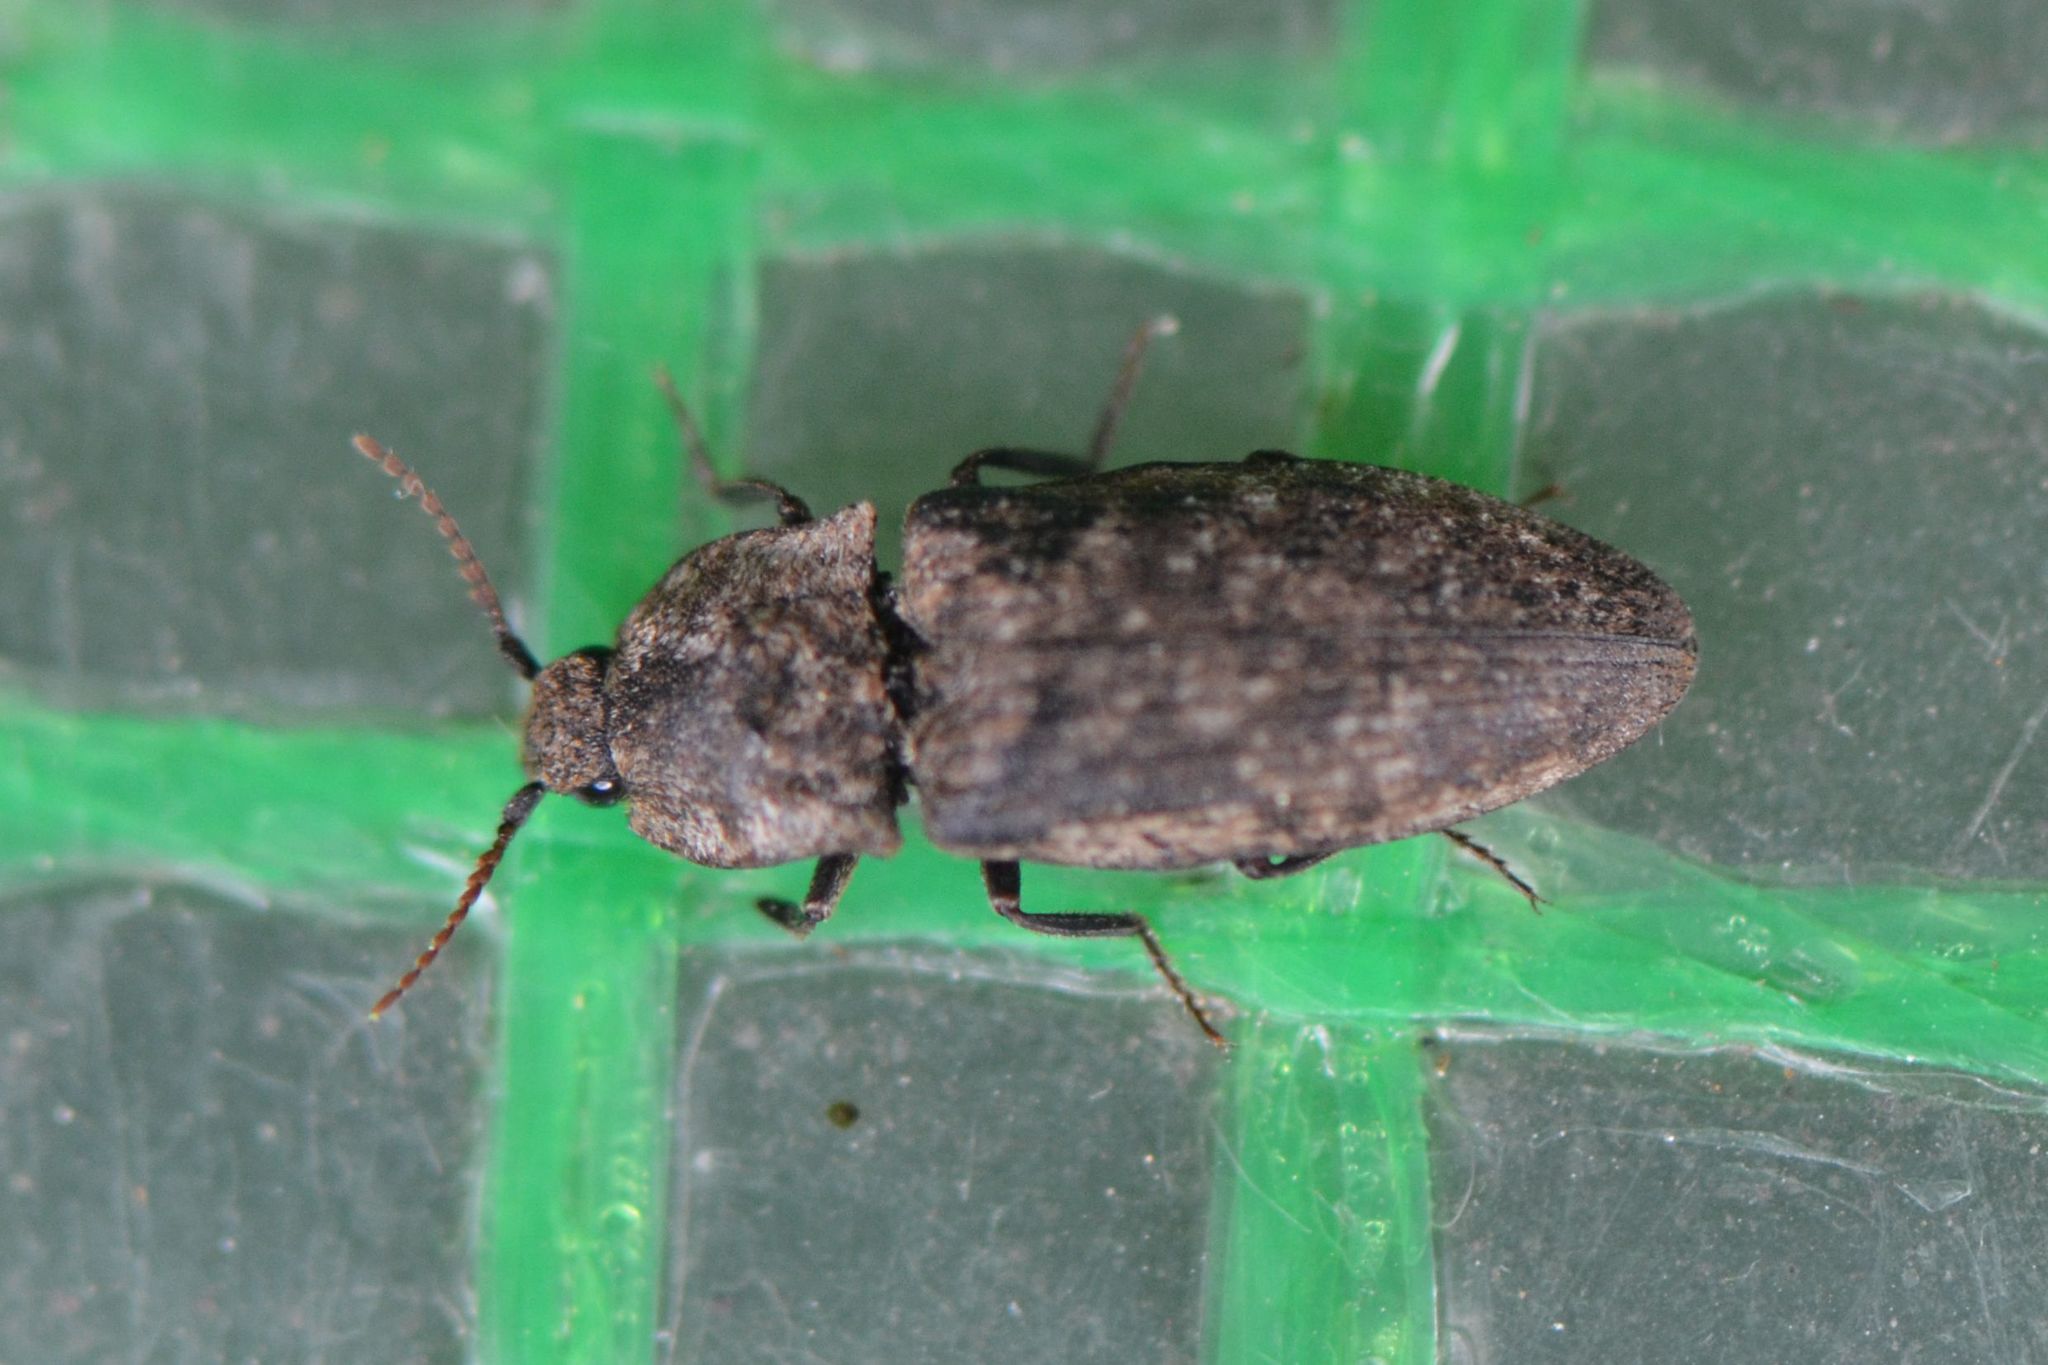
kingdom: Animalia
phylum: Arthropoda
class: Insecta
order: Coleoptera
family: Elateridae
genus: Agrypnus
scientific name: Agrypnus murinus
